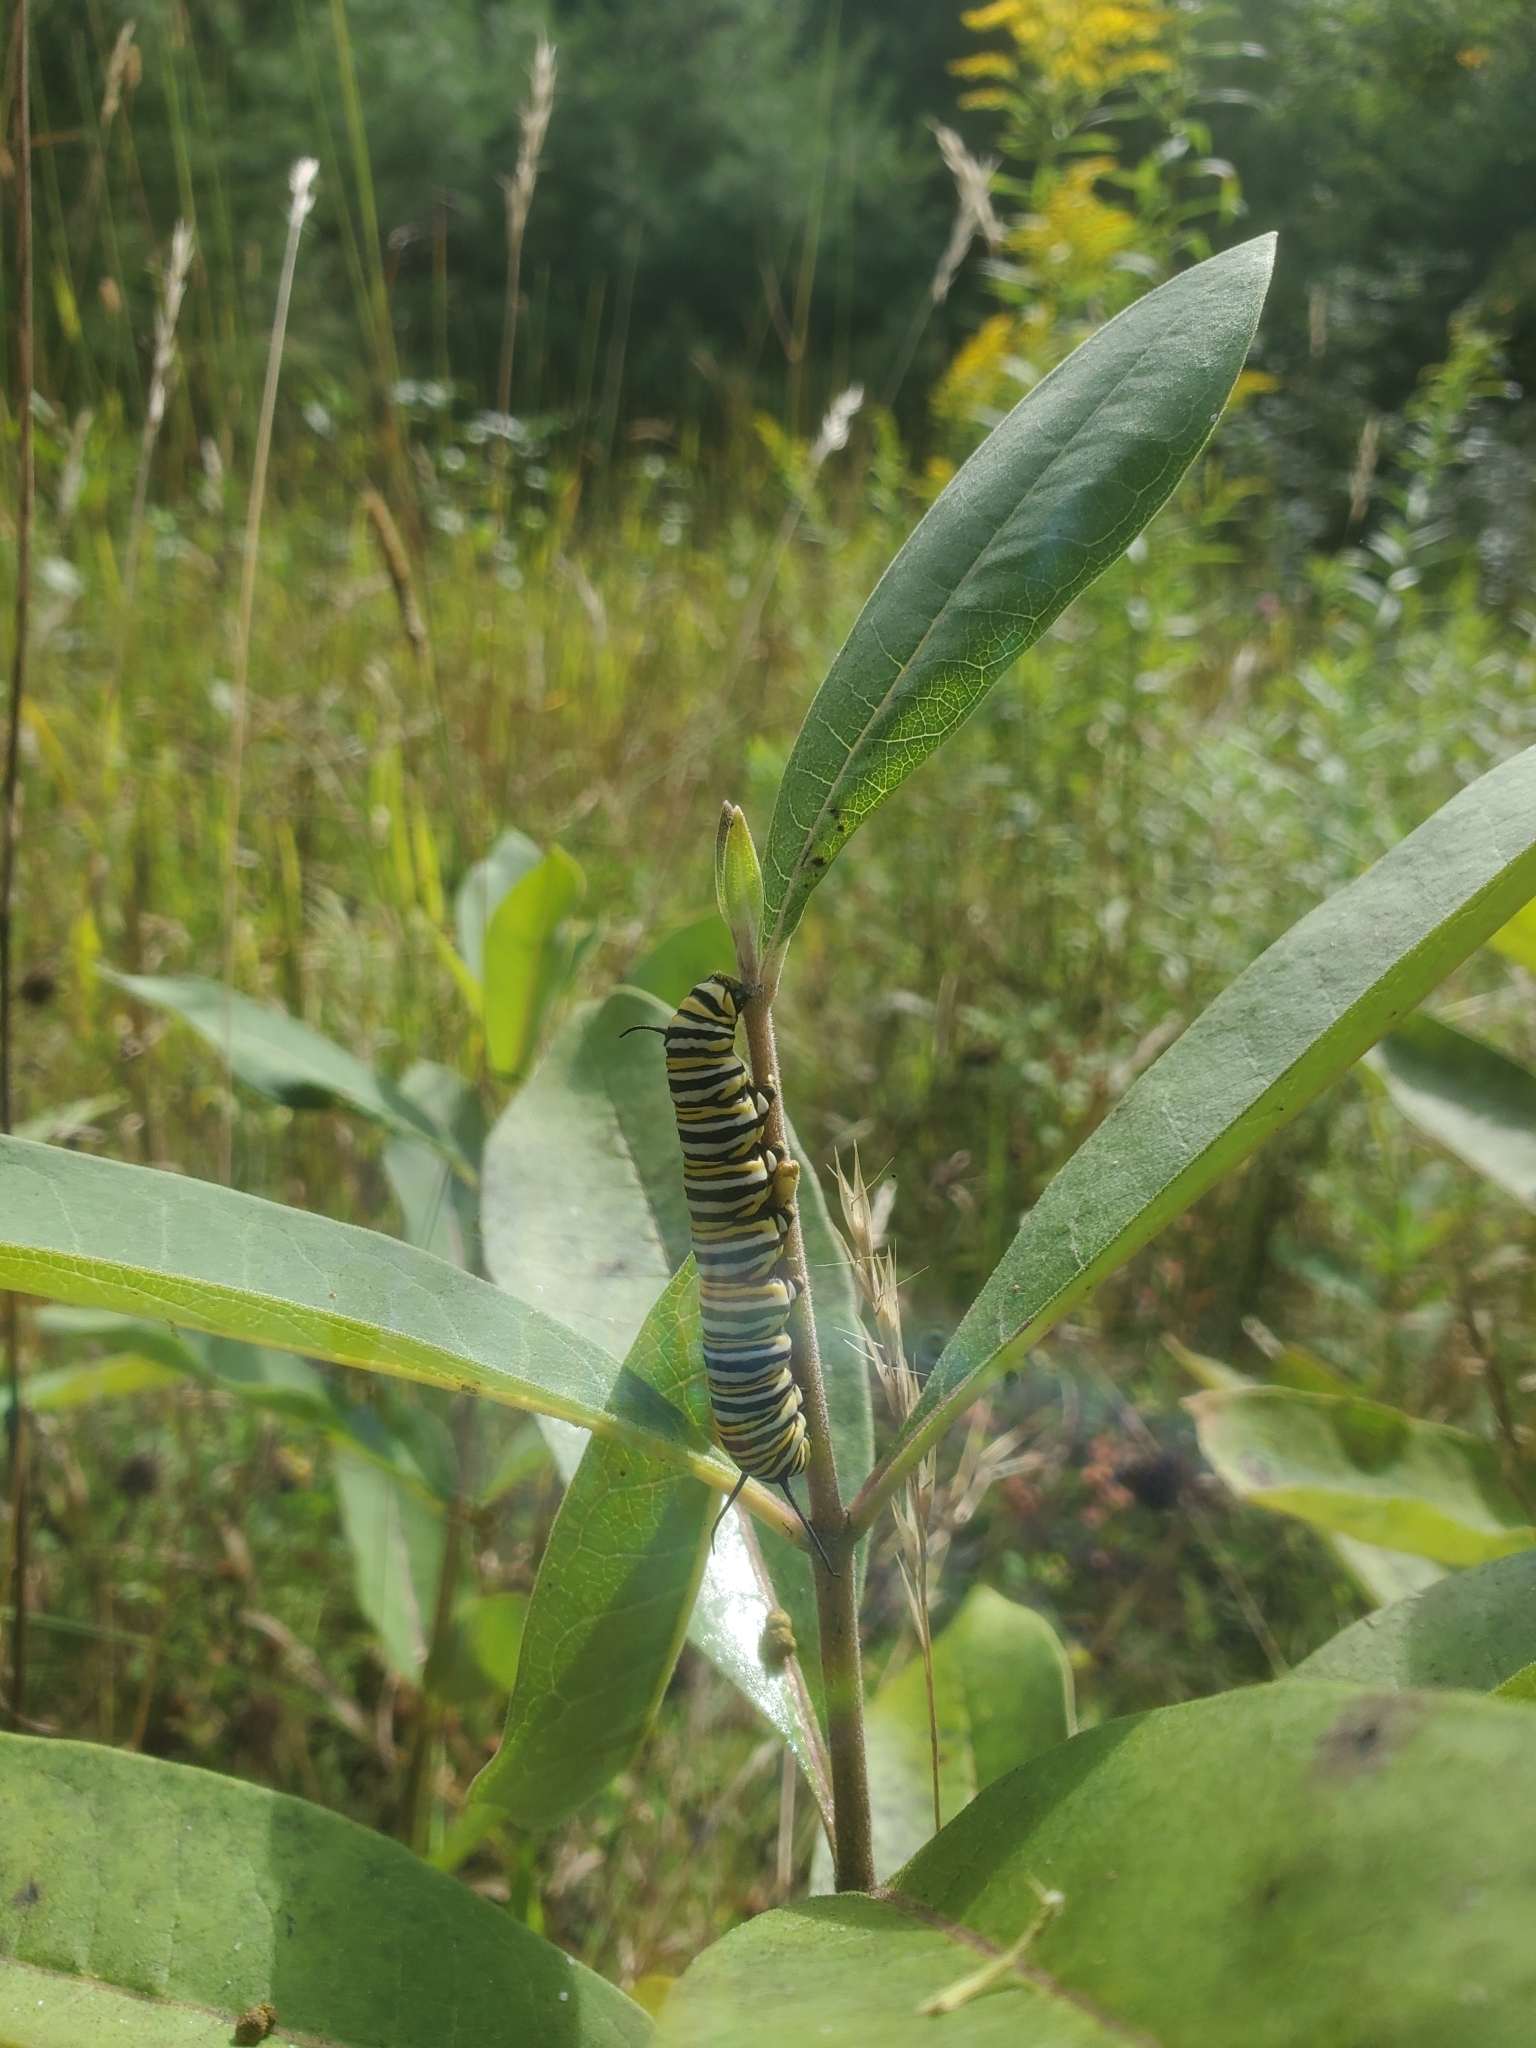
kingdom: Animalia
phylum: Arthropoda
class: Insecta
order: Lepidoptera
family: Nymphalidae
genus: Danaus
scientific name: Danaus plexippus
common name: Monarch
